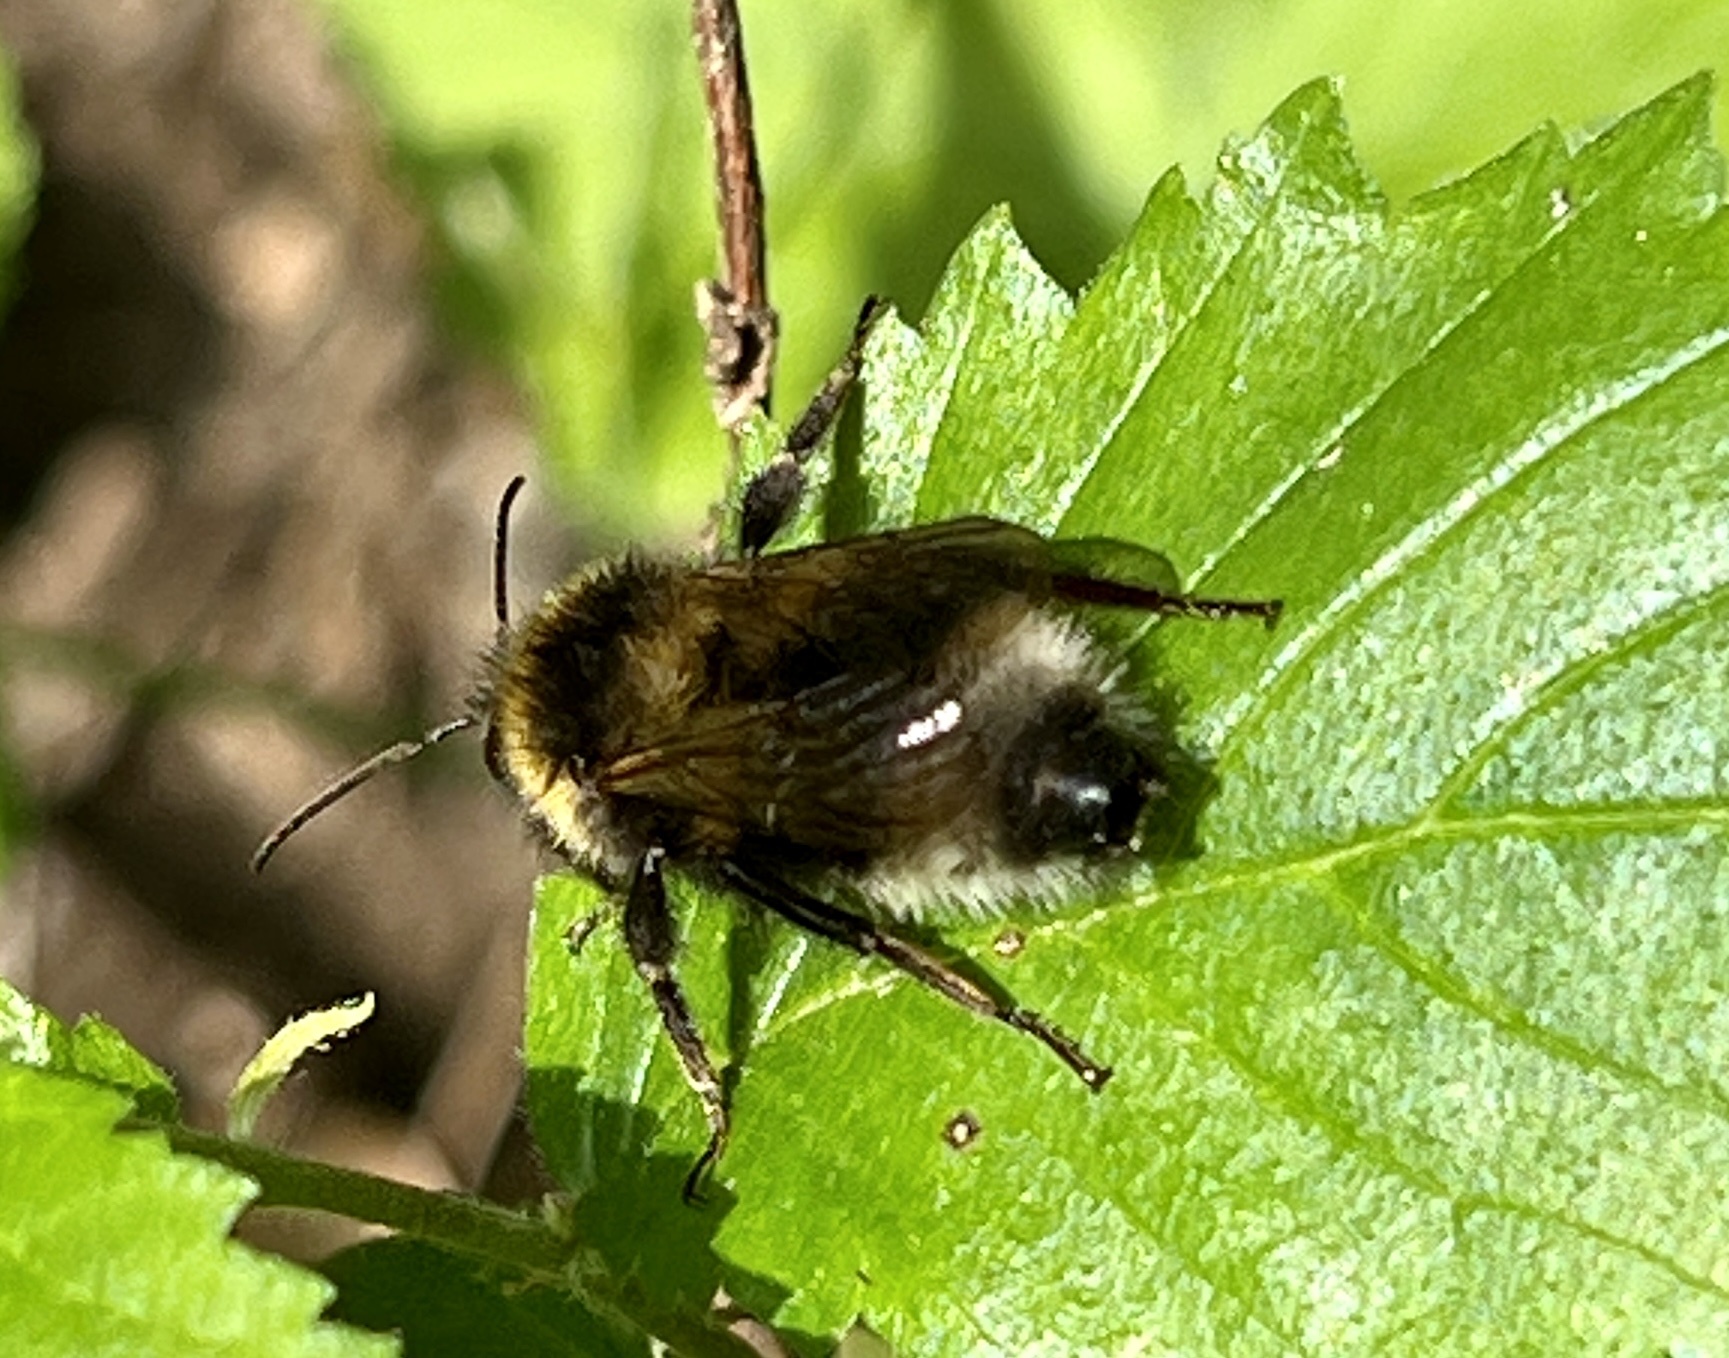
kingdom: Animalia
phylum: Arthropoda
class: Insecta
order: Hymenoptera
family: Apidae
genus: Bombus
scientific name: Bombus hortorum
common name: Garden bumblebee
